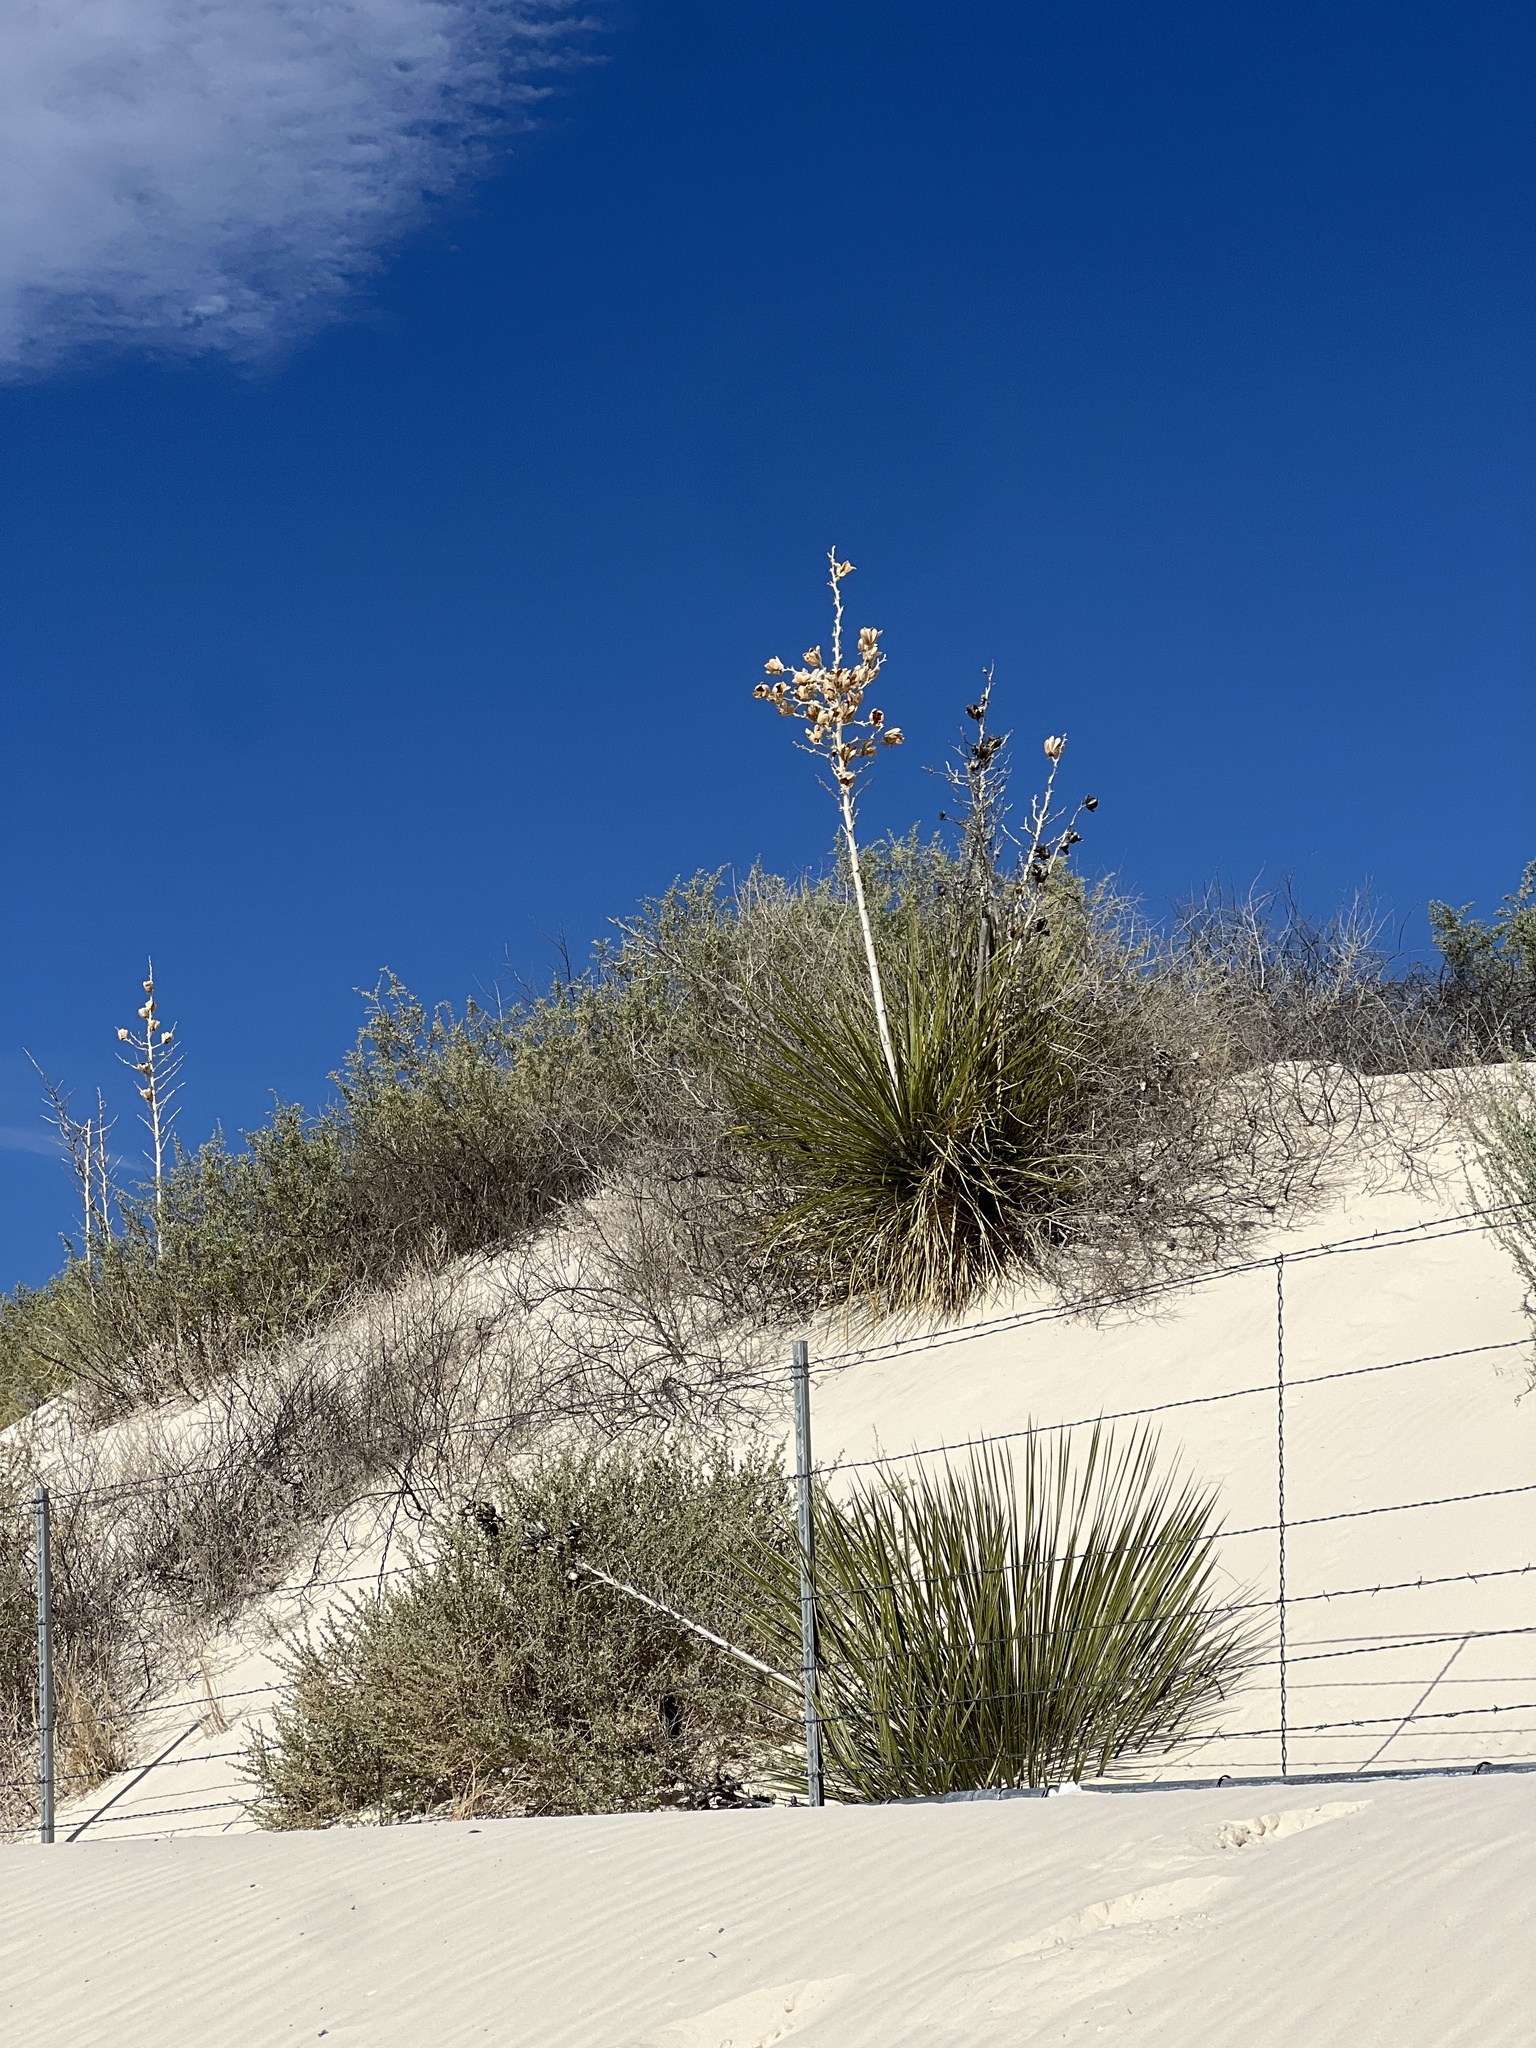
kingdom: Plantae
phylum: Tracheophyta
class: Liliopsida
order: Asparagales
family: Asparagaceae
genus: Yucca
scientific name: Yucca elata
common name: Palmella
